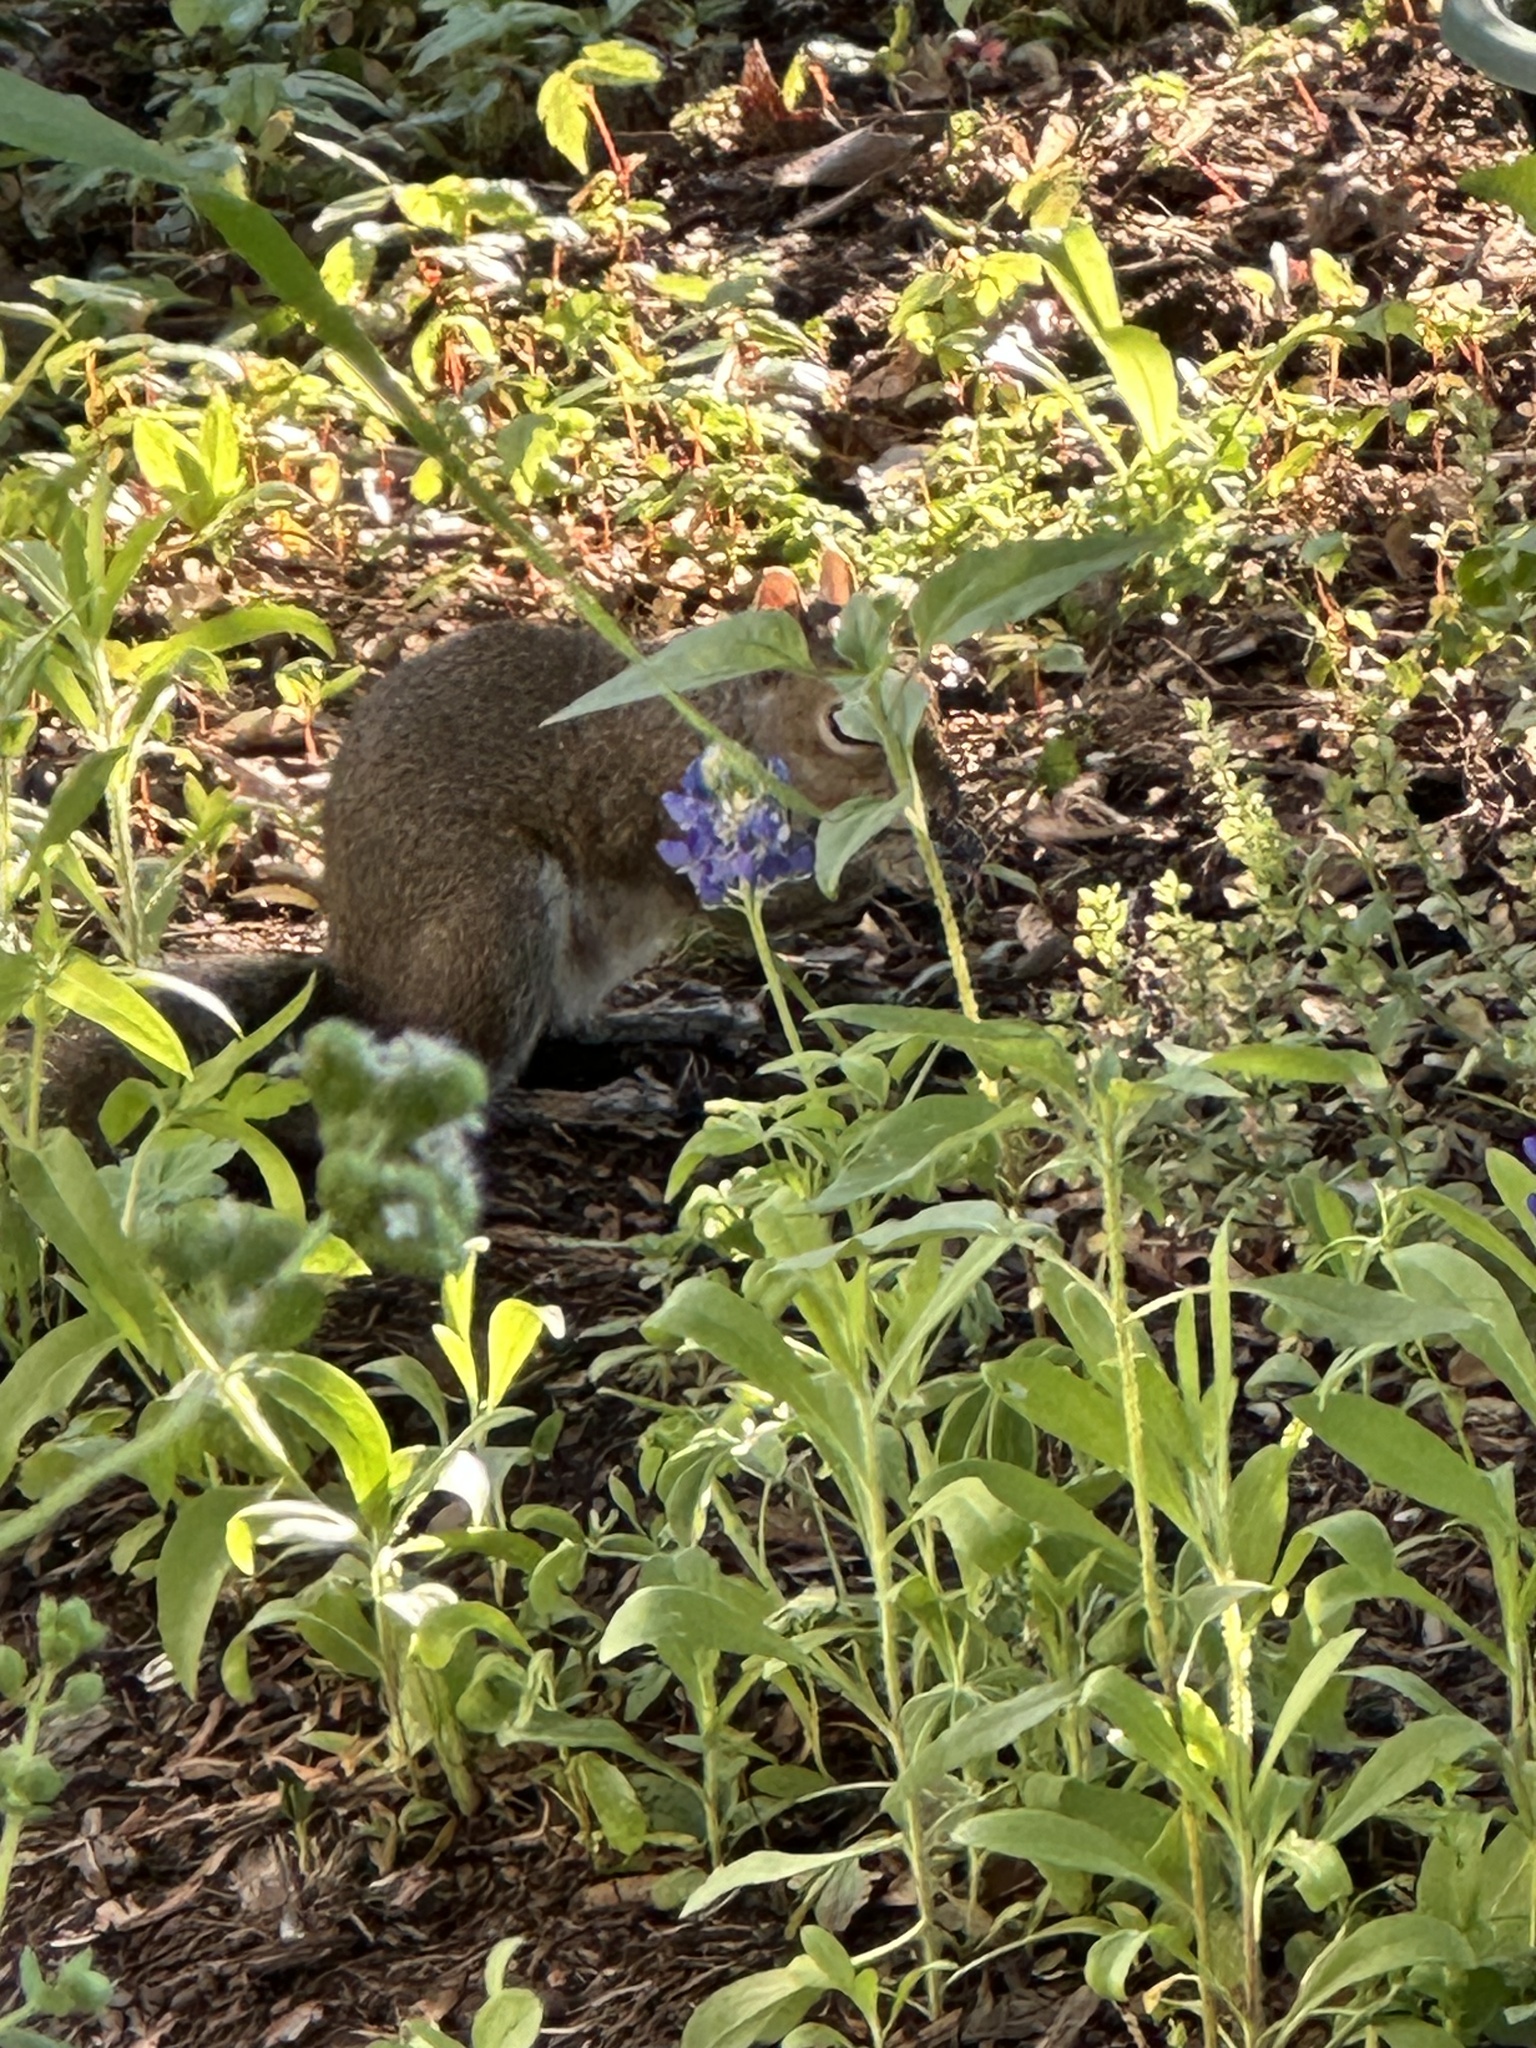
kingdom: Animalia
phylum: Chordata
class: Mammalia
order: Rodentia
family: Sciuridae
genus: Sciurus
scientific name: Sciurus carolinensis
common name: Eastern gray squirrel
